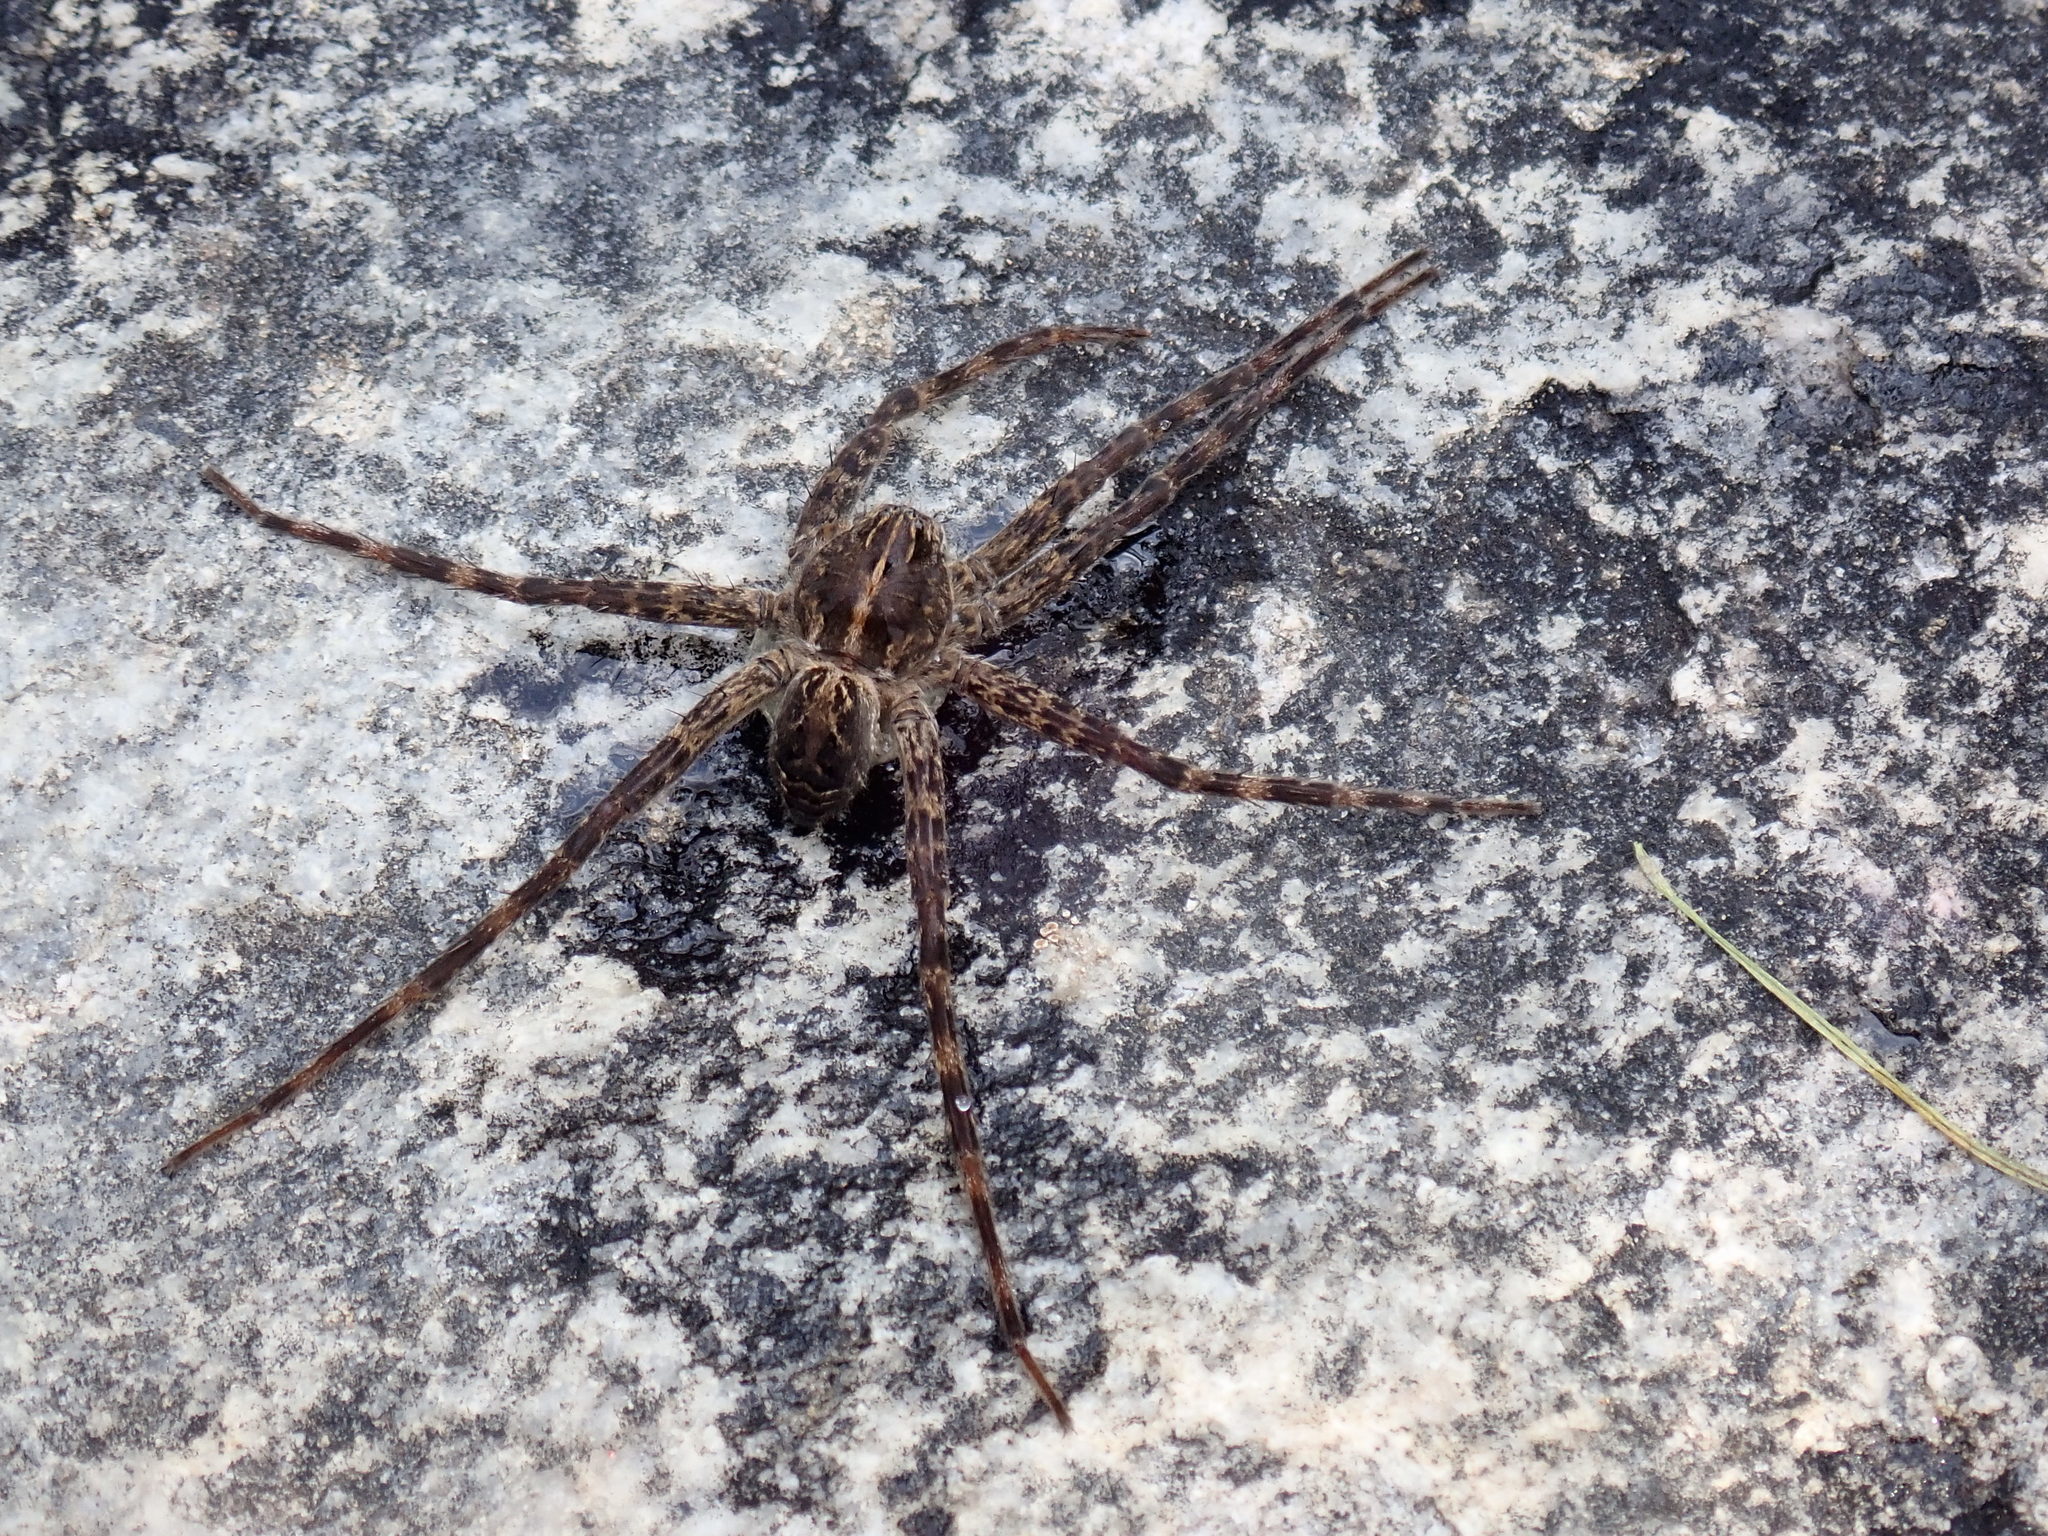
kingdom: Animalia
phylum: Arthropoda
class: Arachnida
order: Araneae
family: Pisauridae
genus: Dolomedes
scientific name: Dolomedes scriptus
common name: Striped fishing spider
